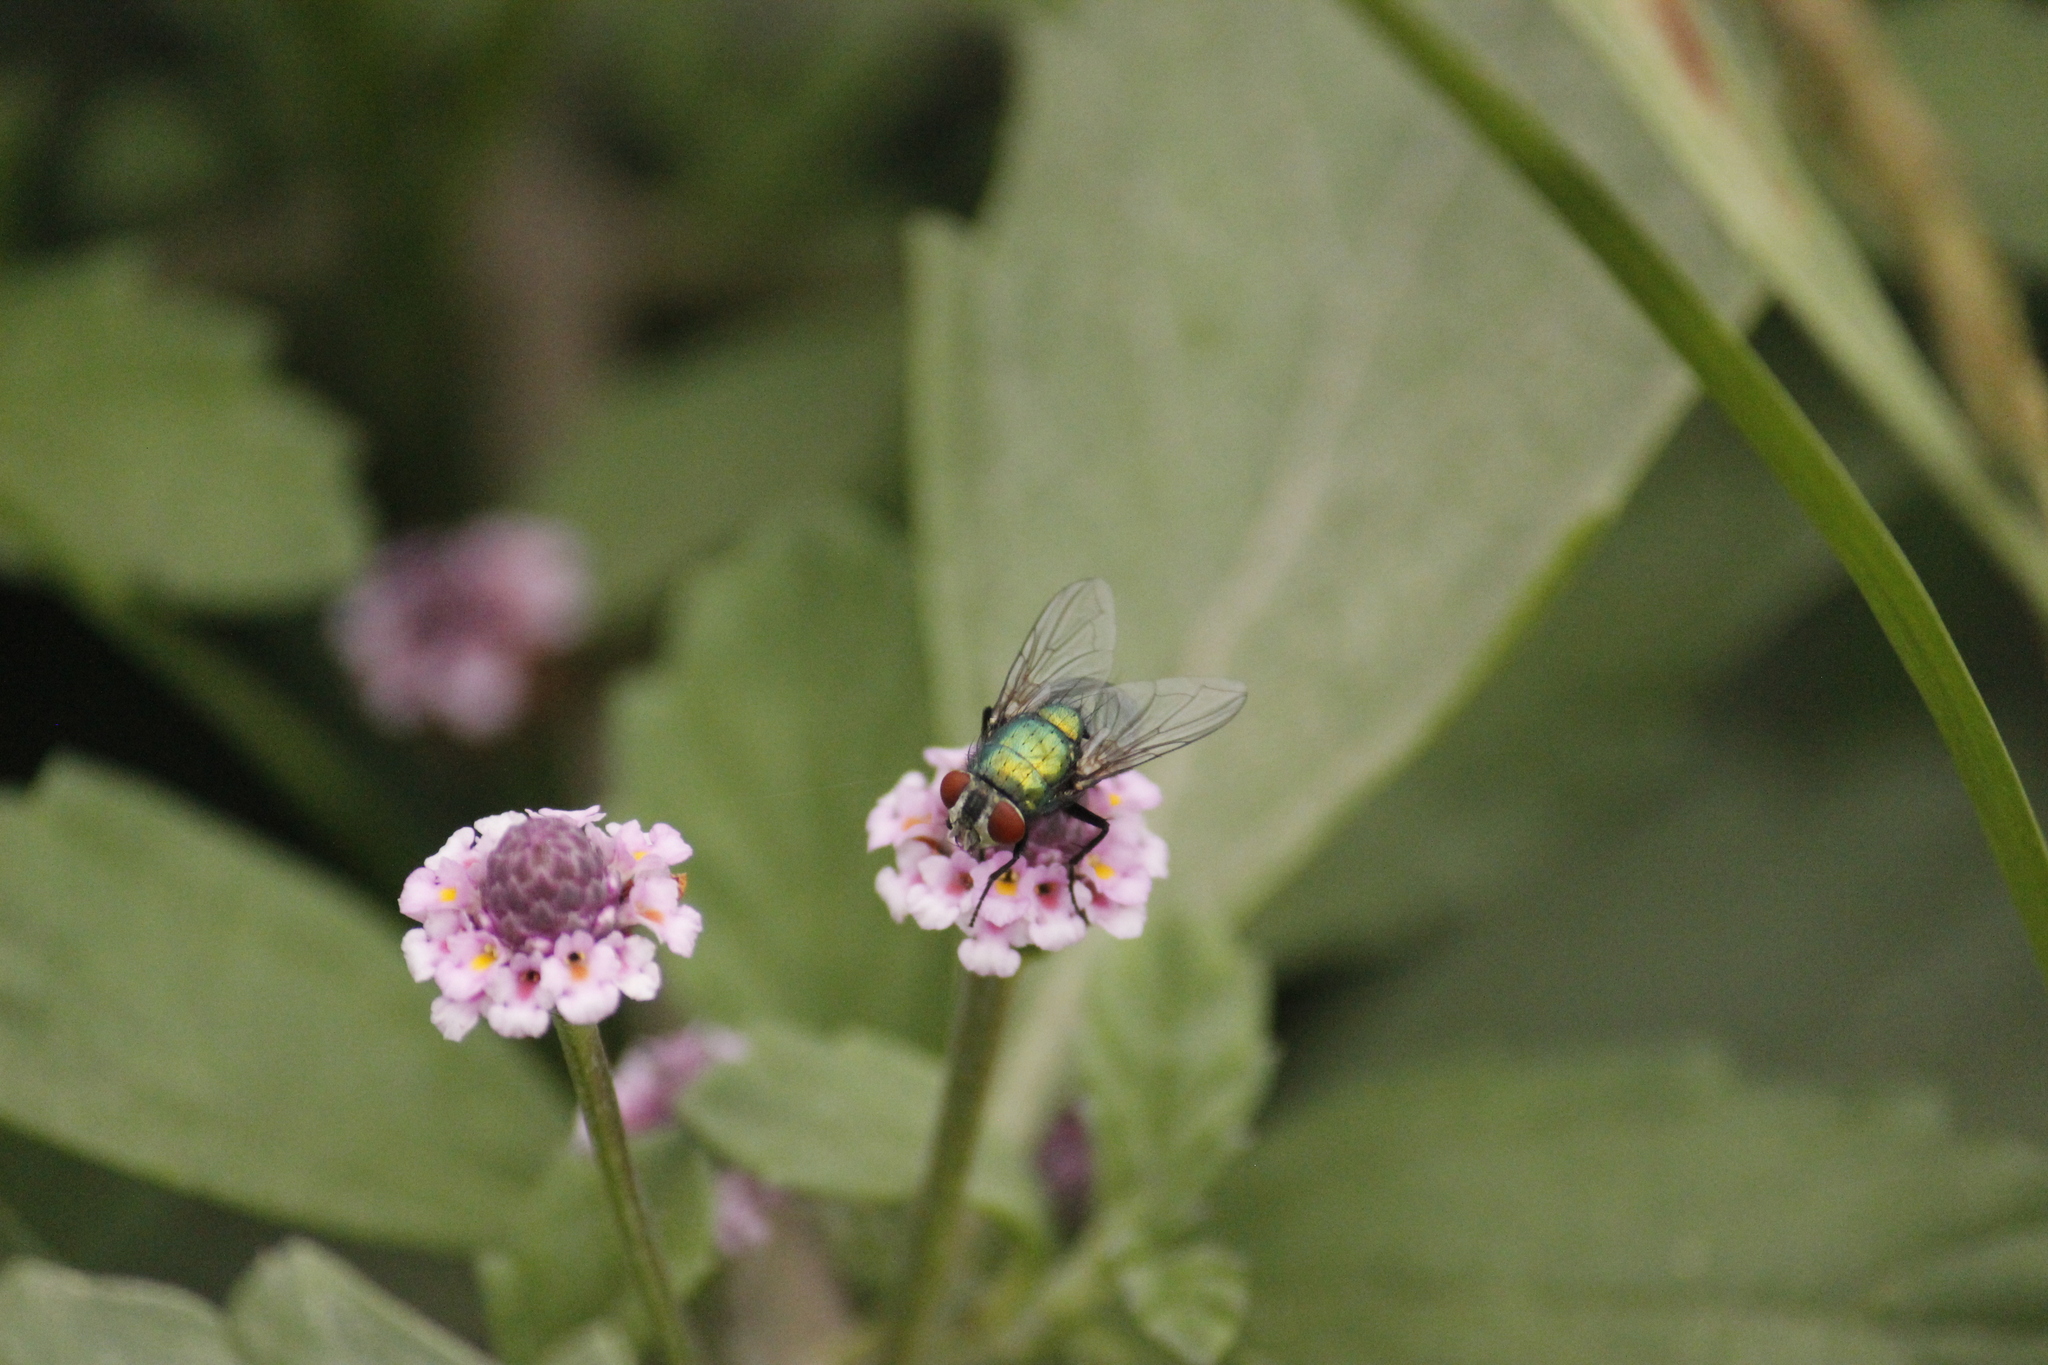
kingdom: Animalia
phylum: Arthropoda
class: Insecta
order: Diptera
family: Calliphoridae
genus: Lucilia
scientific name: Lucilia sericata
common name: Blow fly
